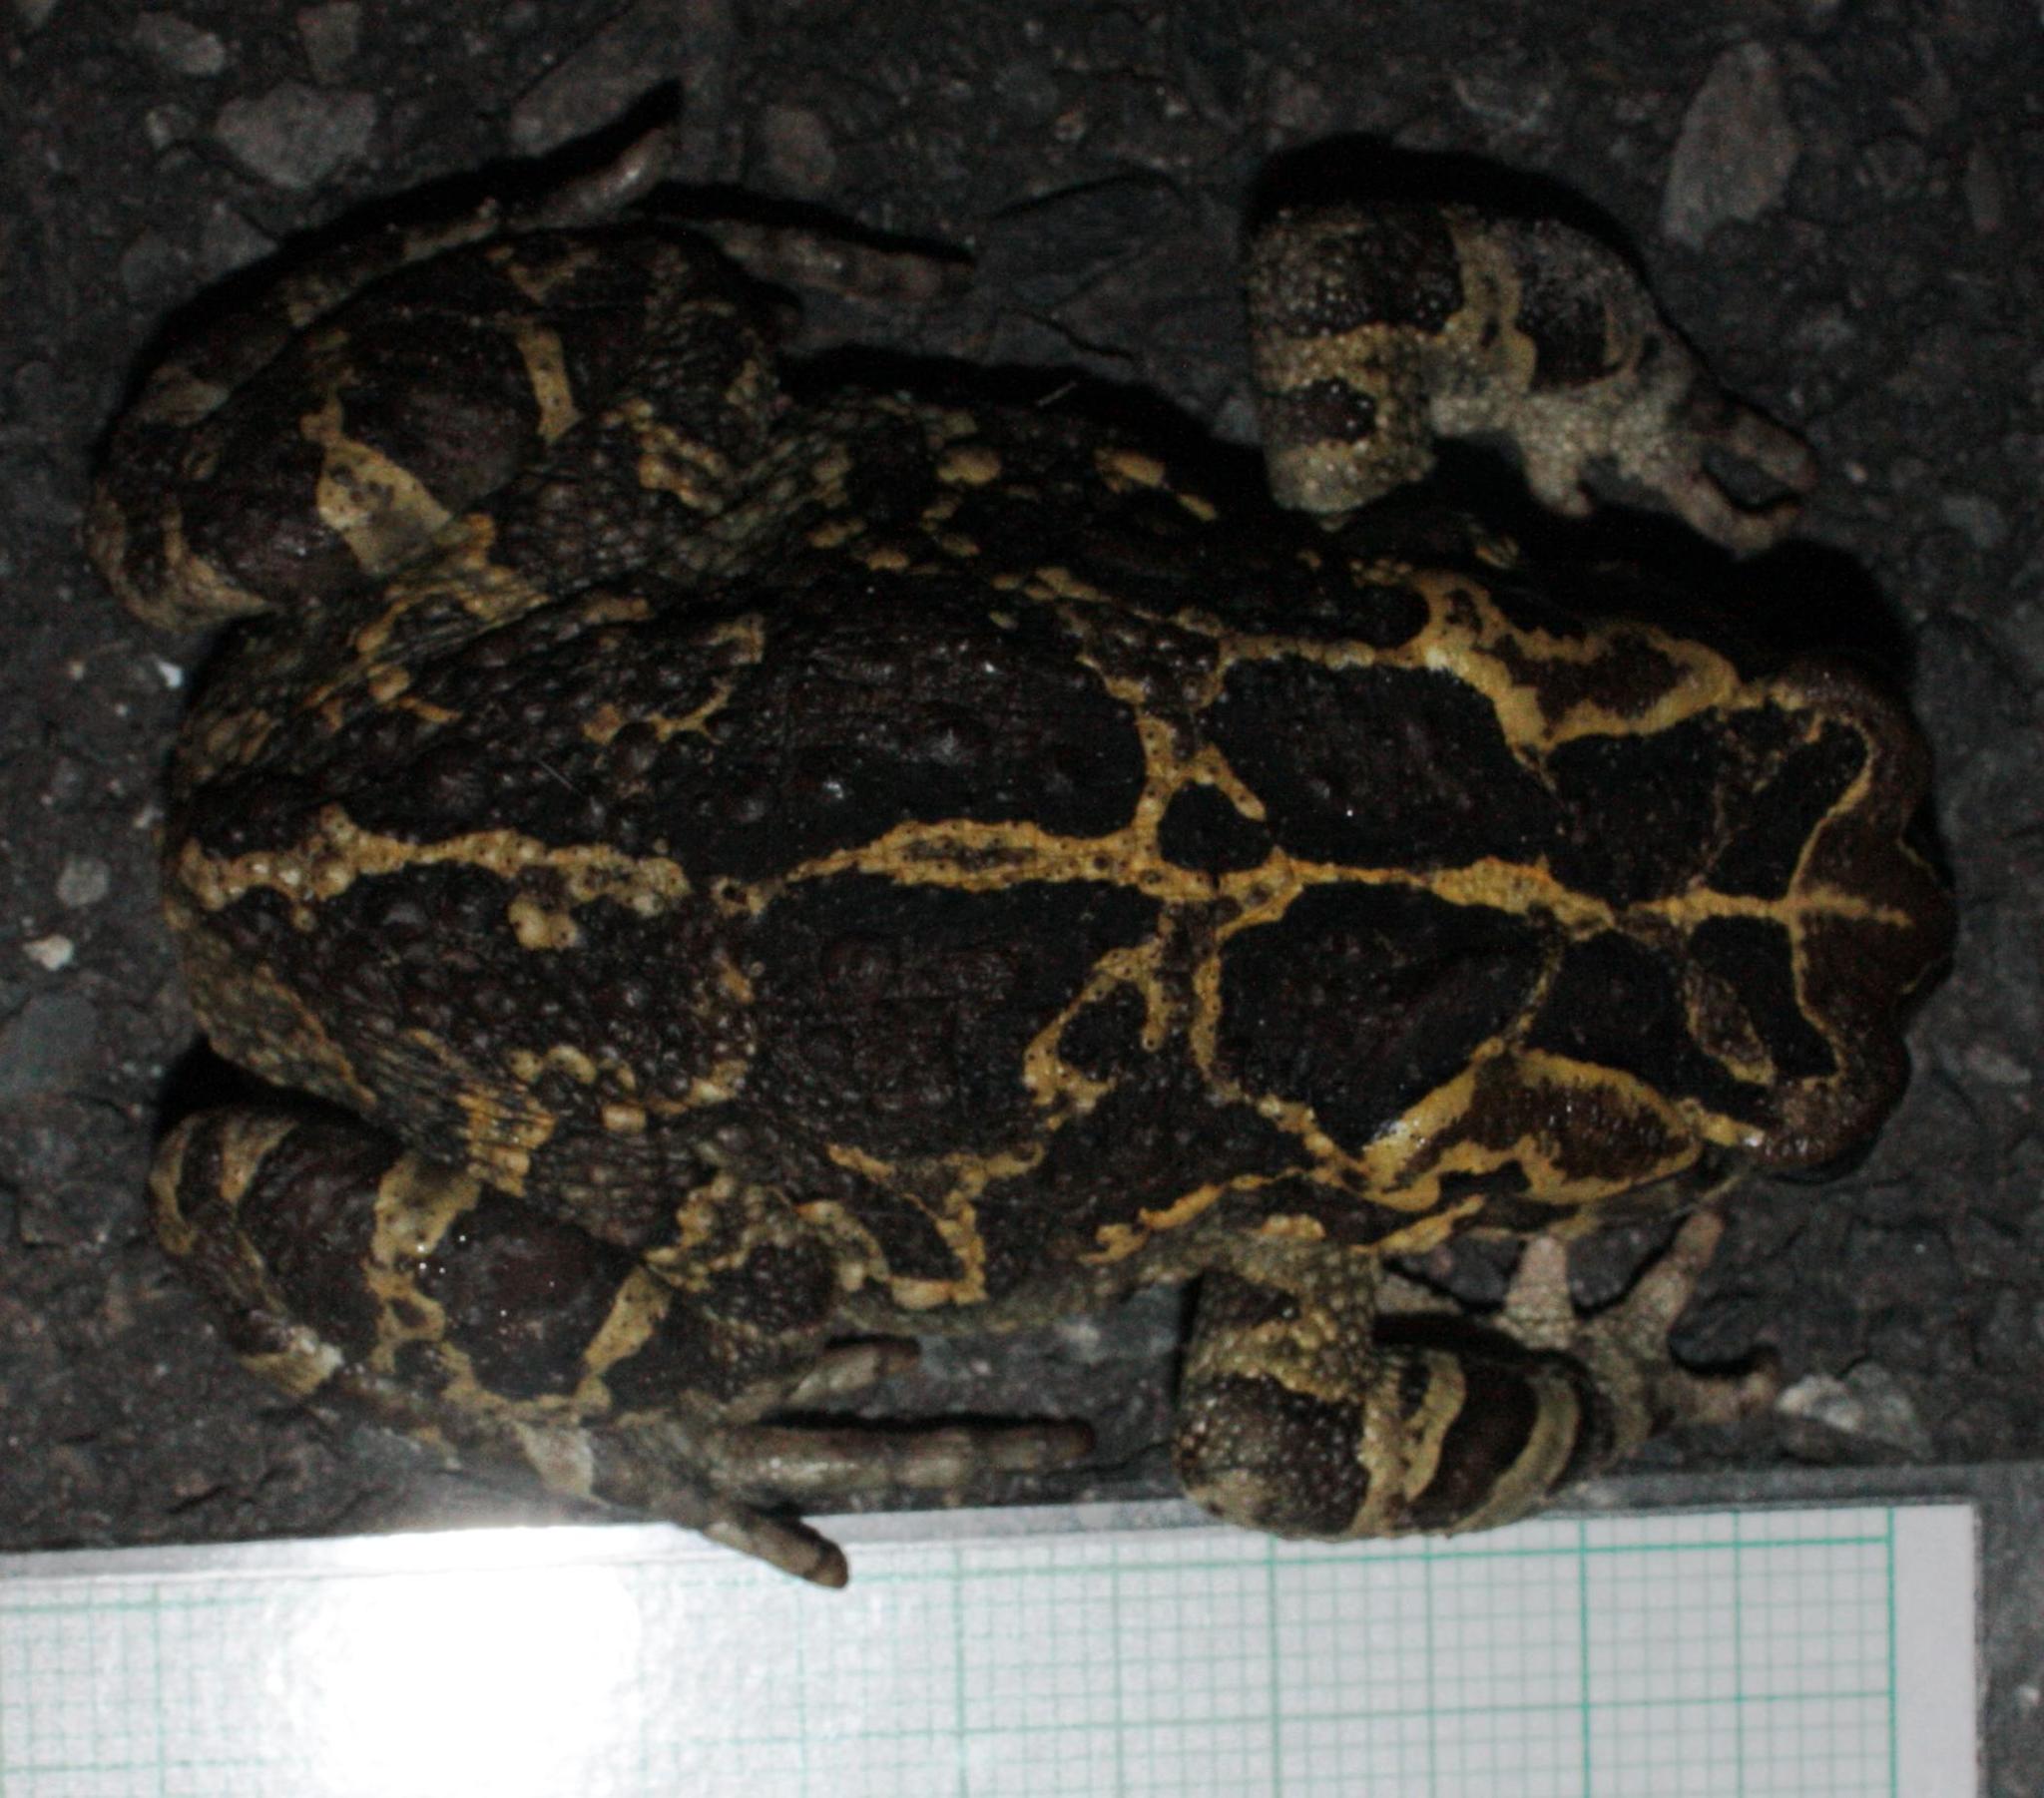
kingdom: Animalia
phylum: Chordata
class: Amphibia
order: Anura
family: Bufonidae
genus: Sclerophrys
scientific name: Sclerophrys pantherina
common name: Panther toad
